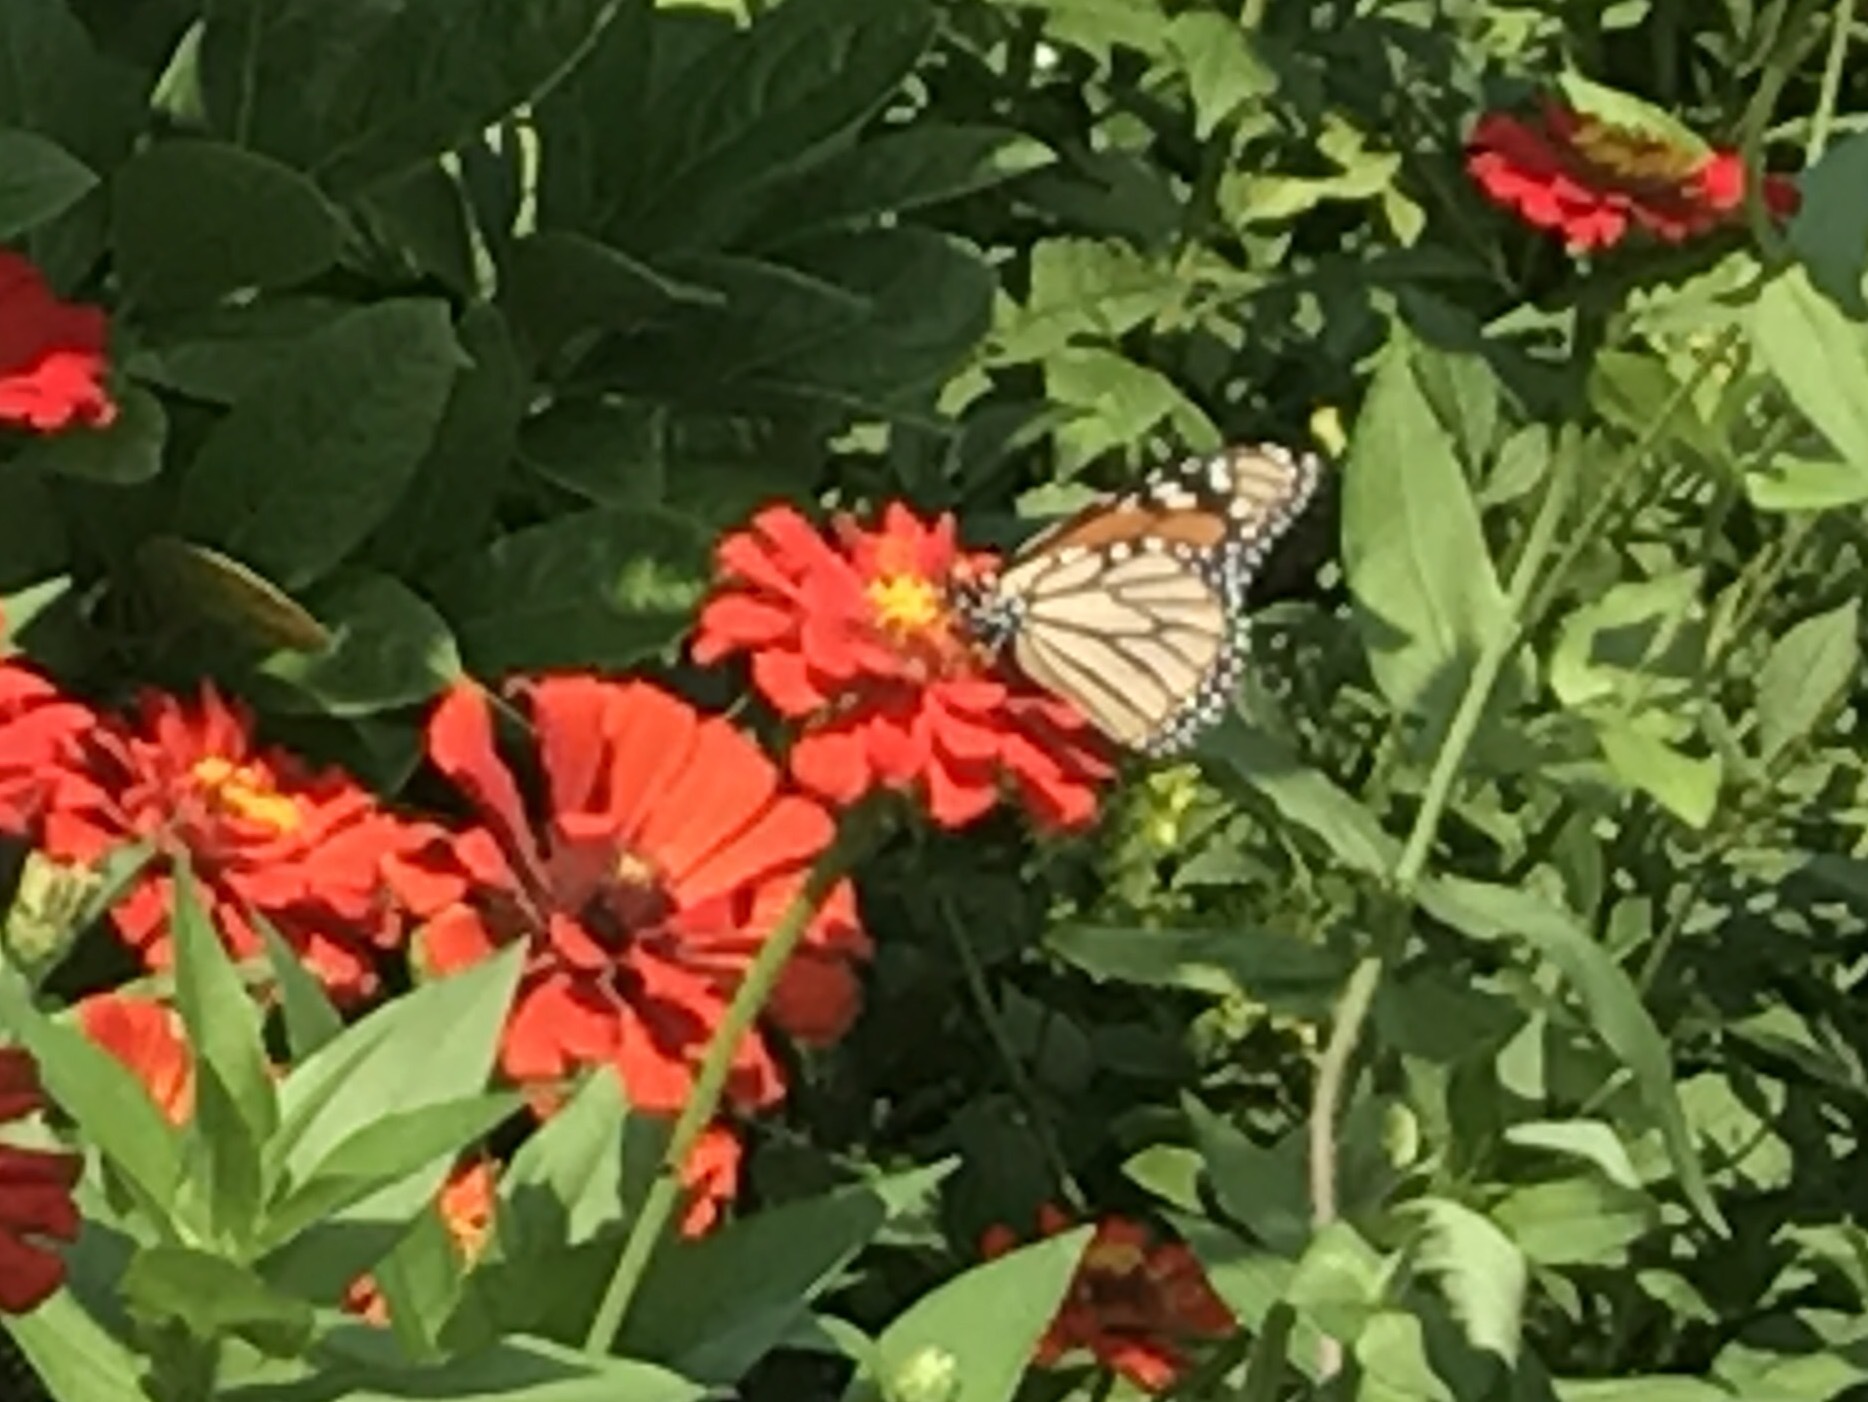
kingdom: Animalia
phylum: Arthropoda
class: Insecta
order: Lepidoptera
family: Nymphalidae
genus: Danaus
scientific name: Danaus plexippus
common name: Monarch
